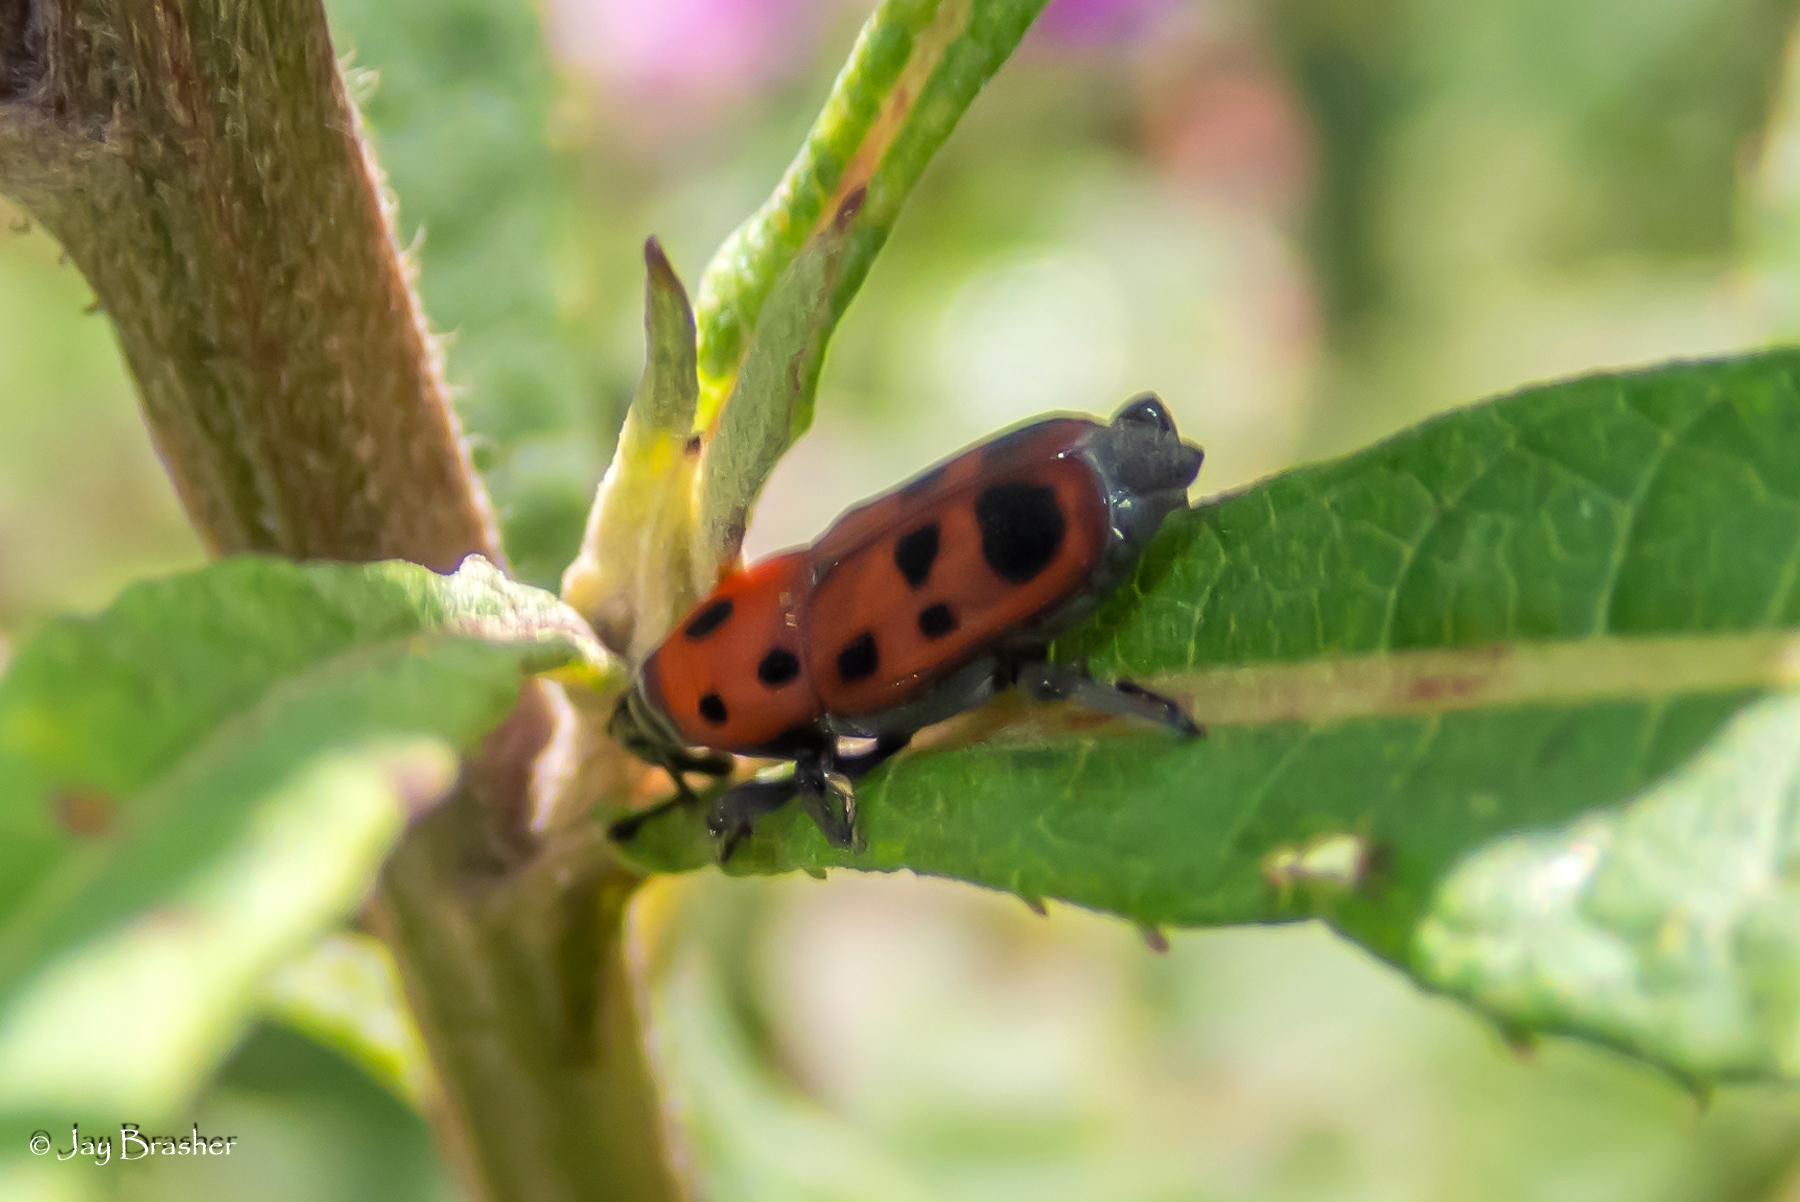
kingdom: Animalia
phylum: Arthropoda
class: Insecta
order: Coleoptera
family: Dryophthoridae
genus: Rhodobaenus
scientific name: Rhodobaenus tredecimpunctatus
